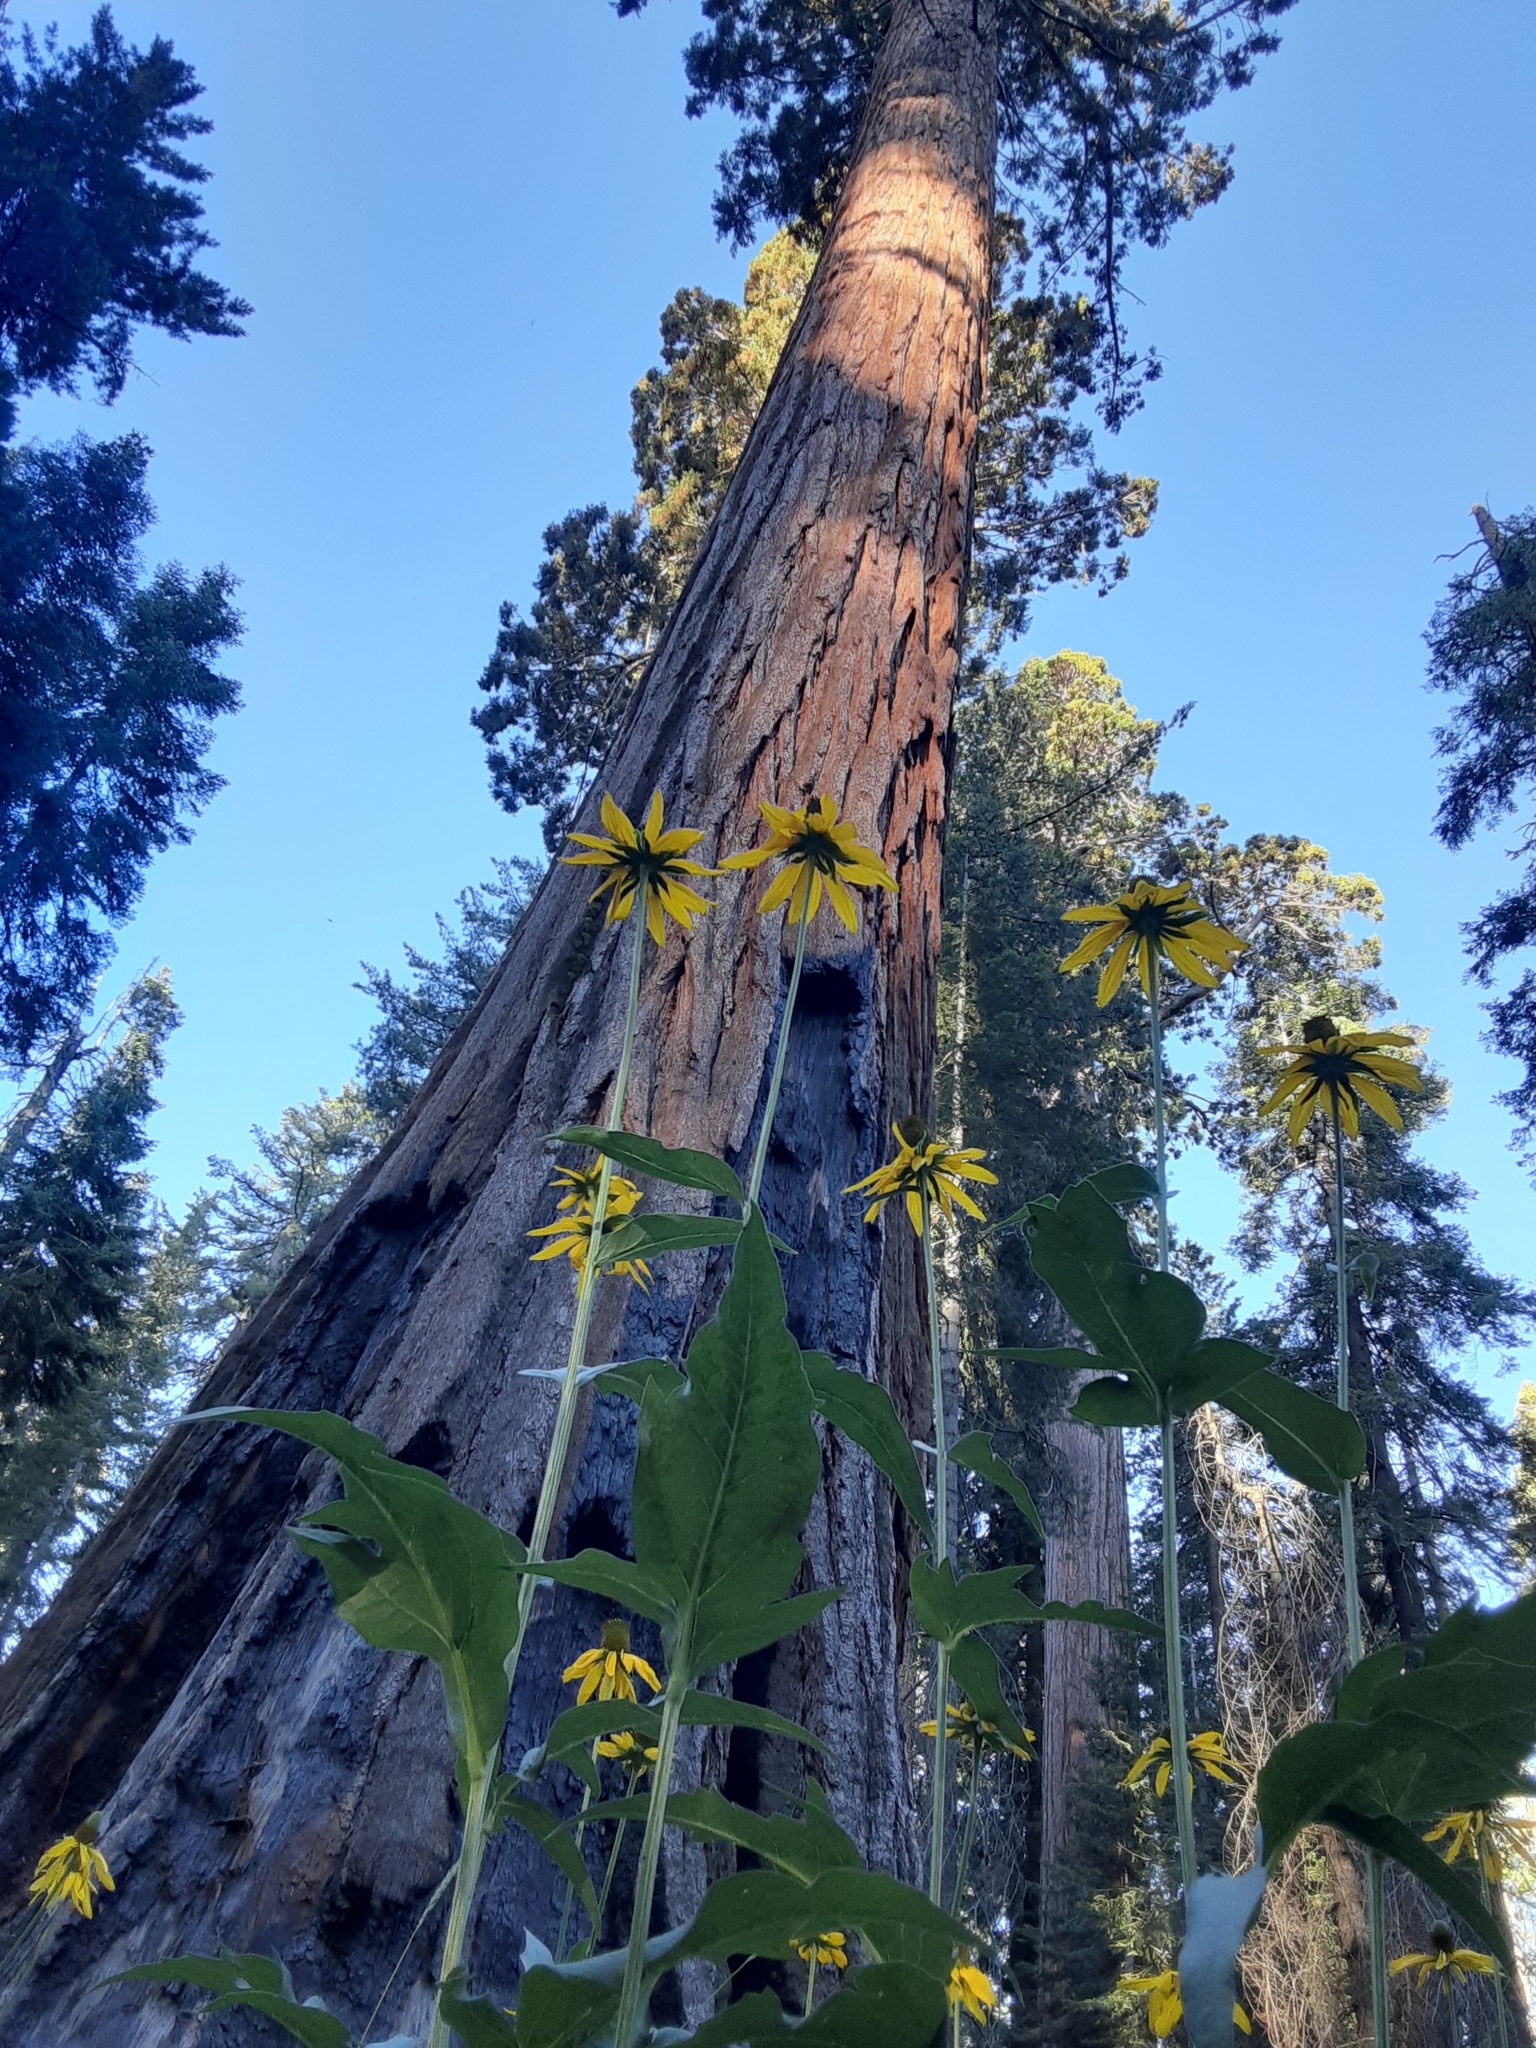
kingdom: Plantae
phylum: Tracheophyta
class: Pinopsida
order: Pinales
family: Cupressaceae
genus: Sequoiadendron
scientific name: Sequoiadendron giganteum
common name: Wellingtonia
